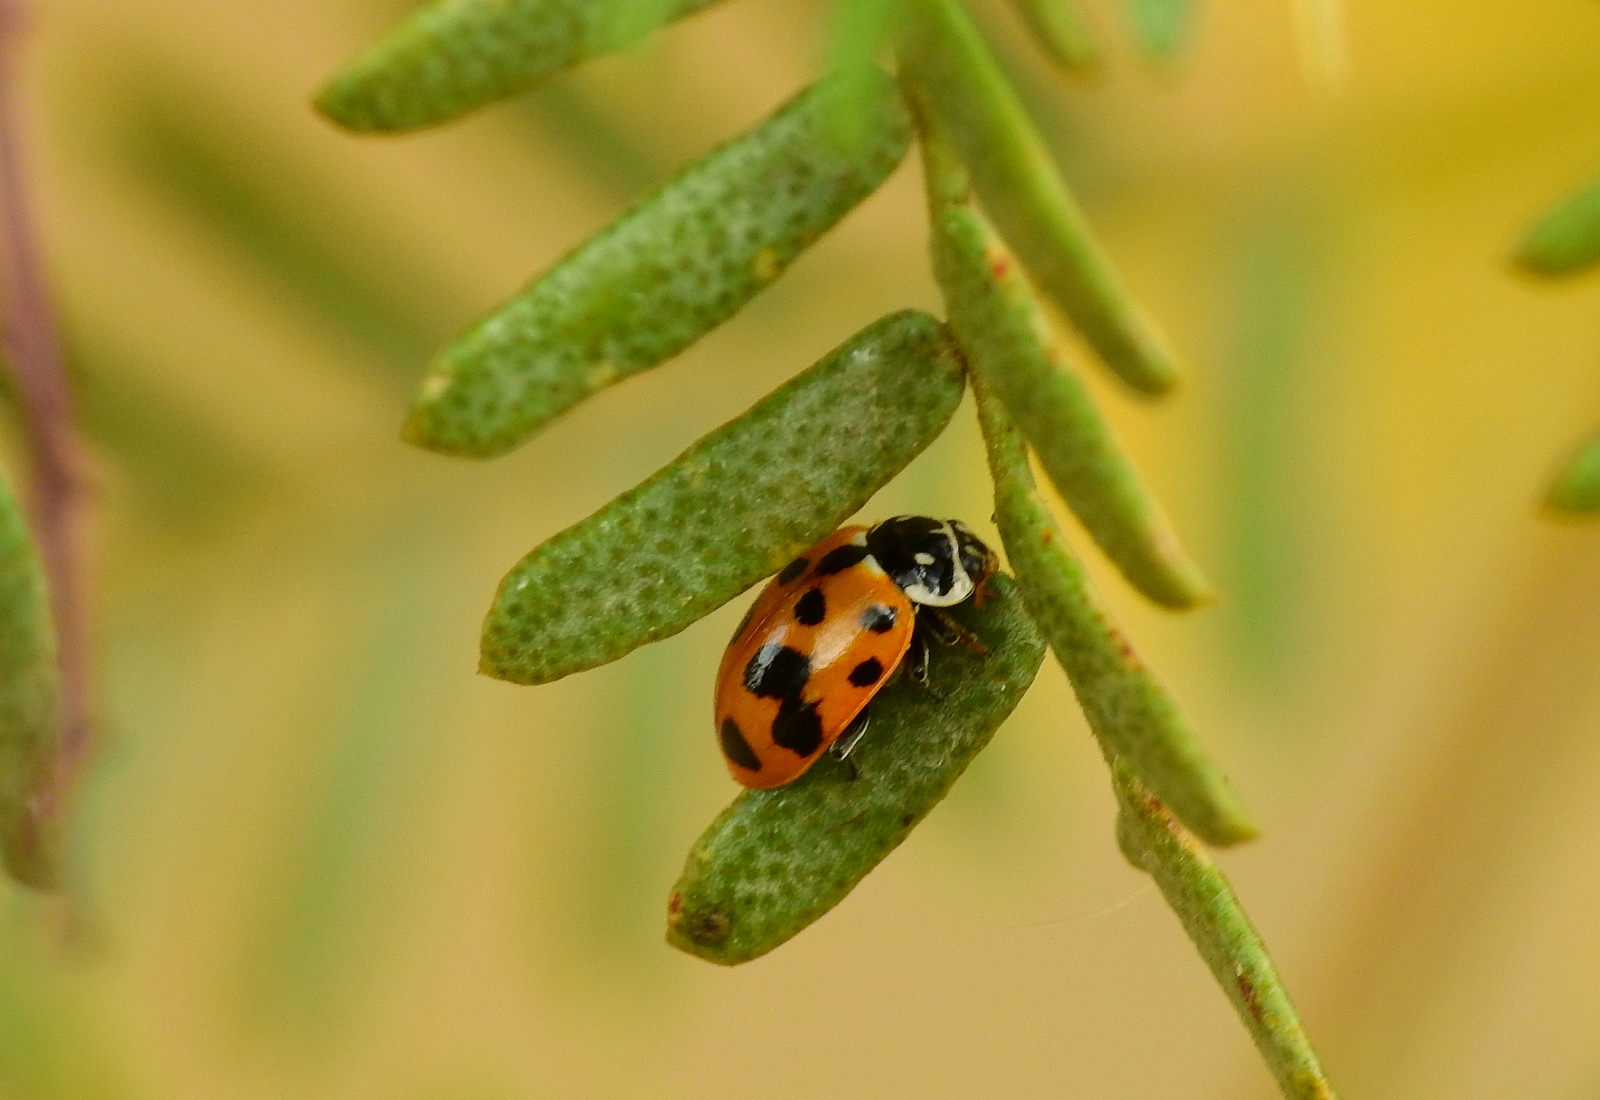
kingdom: Animalia
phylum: Arthropoda
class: Insecta
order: Coleoptera
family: Coccinellidae
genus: Hippodamia
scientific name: Hippodamia variegata
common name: Ladybird beetle
